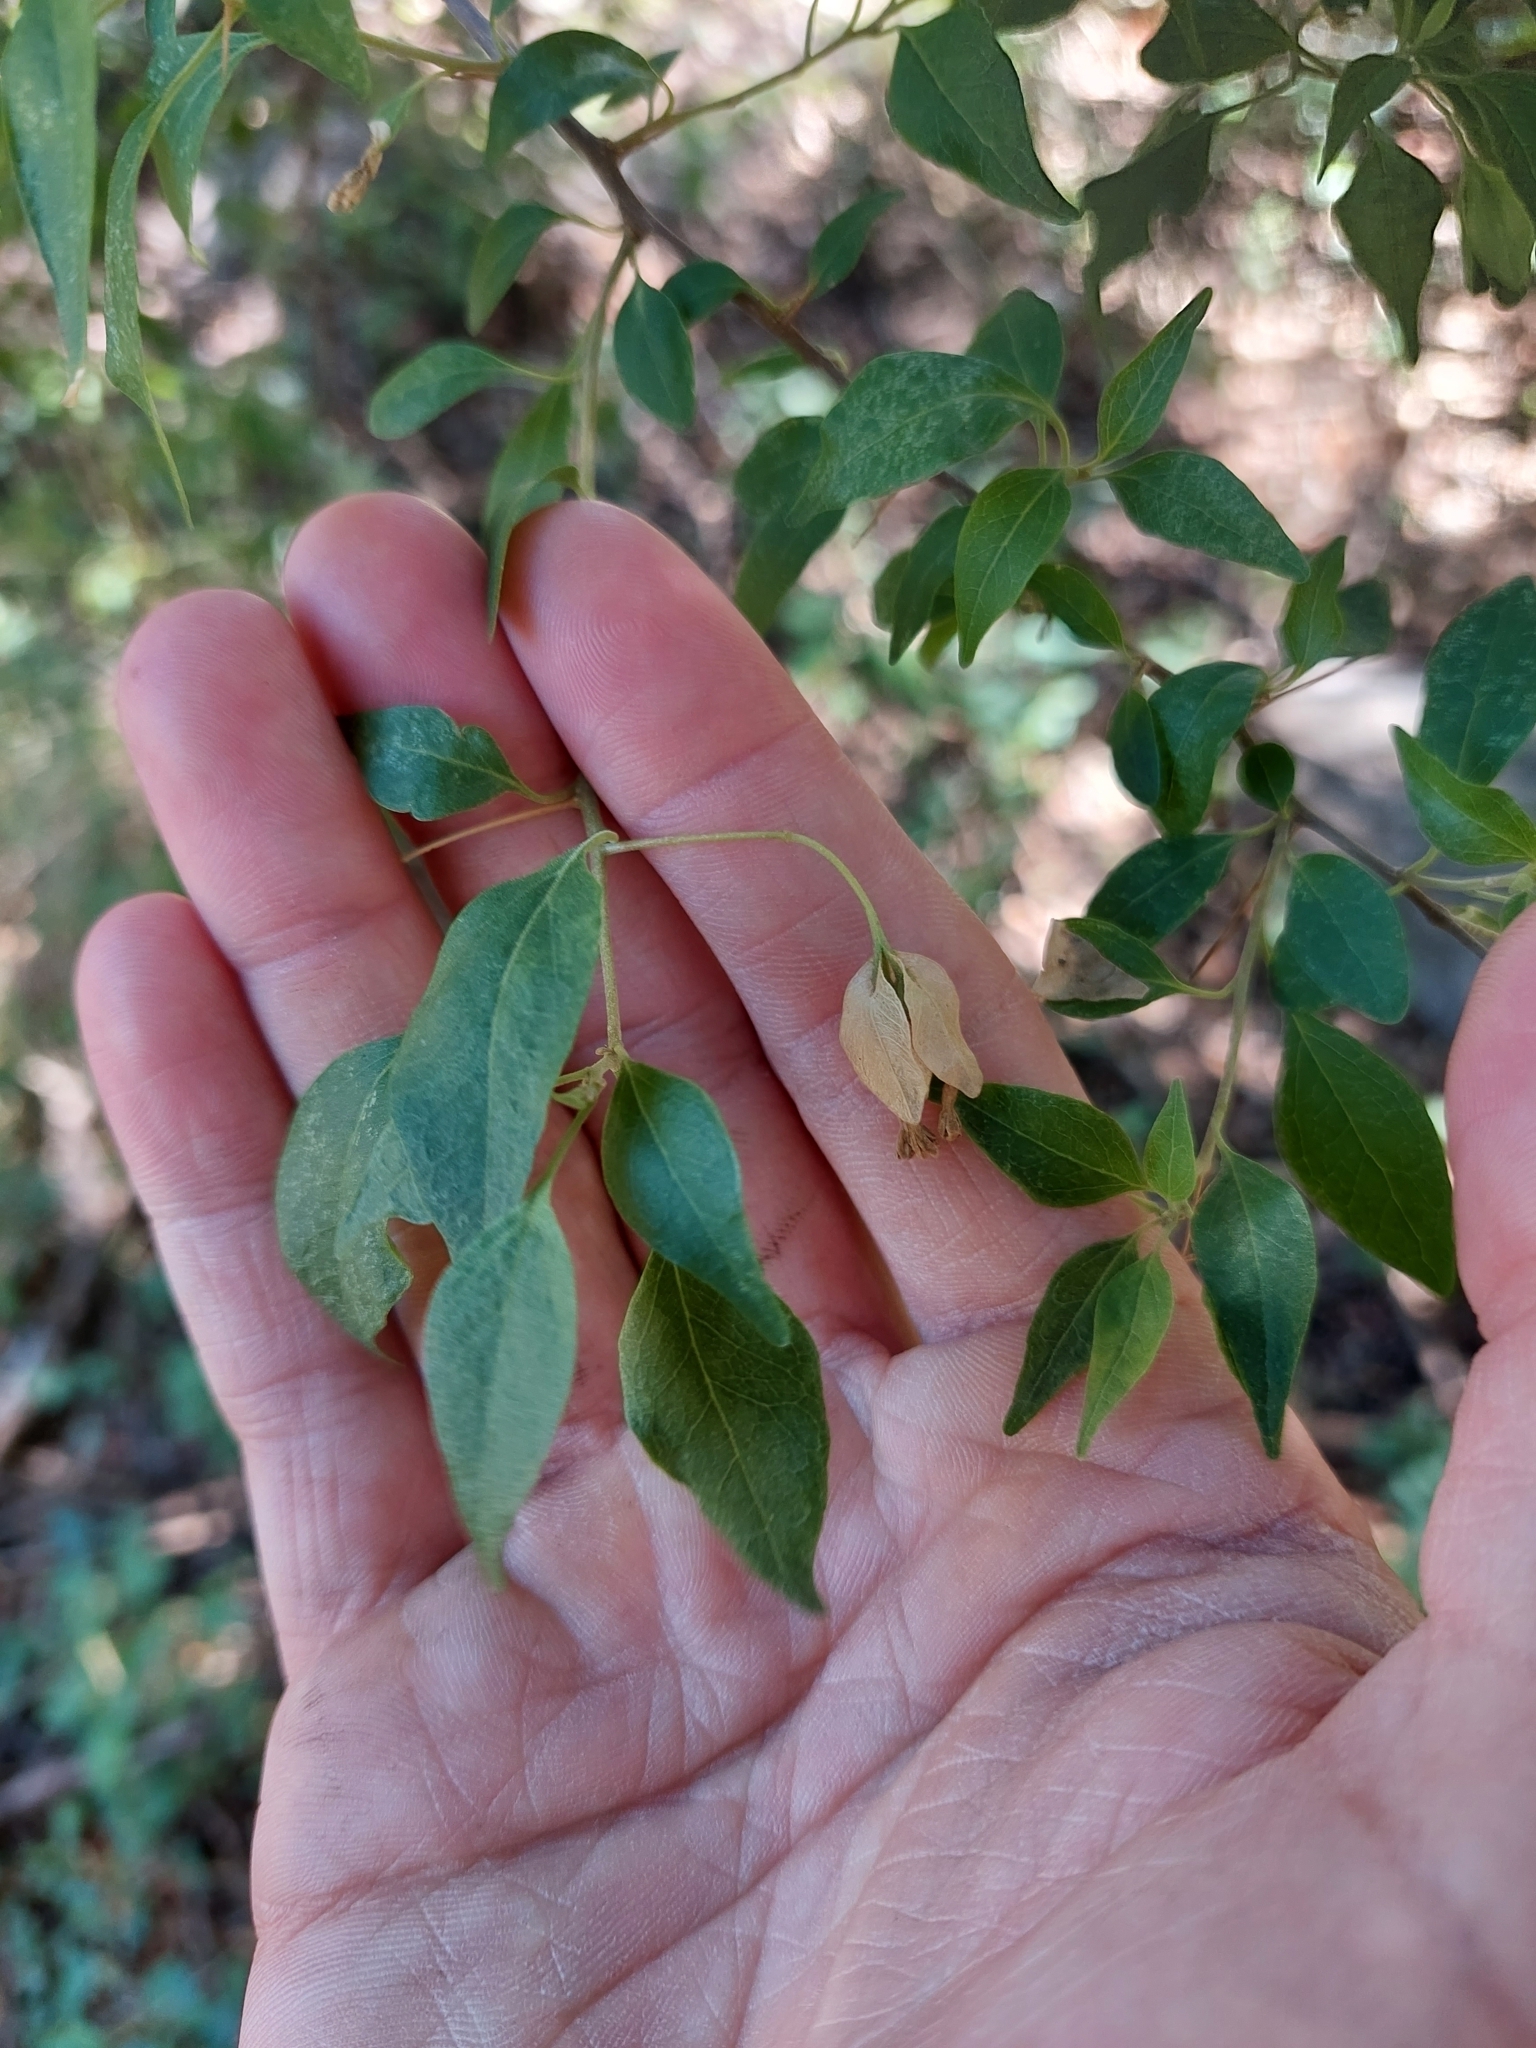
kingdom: Plantae
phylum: Tracheophyta
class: Magnoliopsida
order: Caryophyllales
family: Nyctaginaceae
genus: Bougainvillea
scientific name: Bougainvillea stipitata
